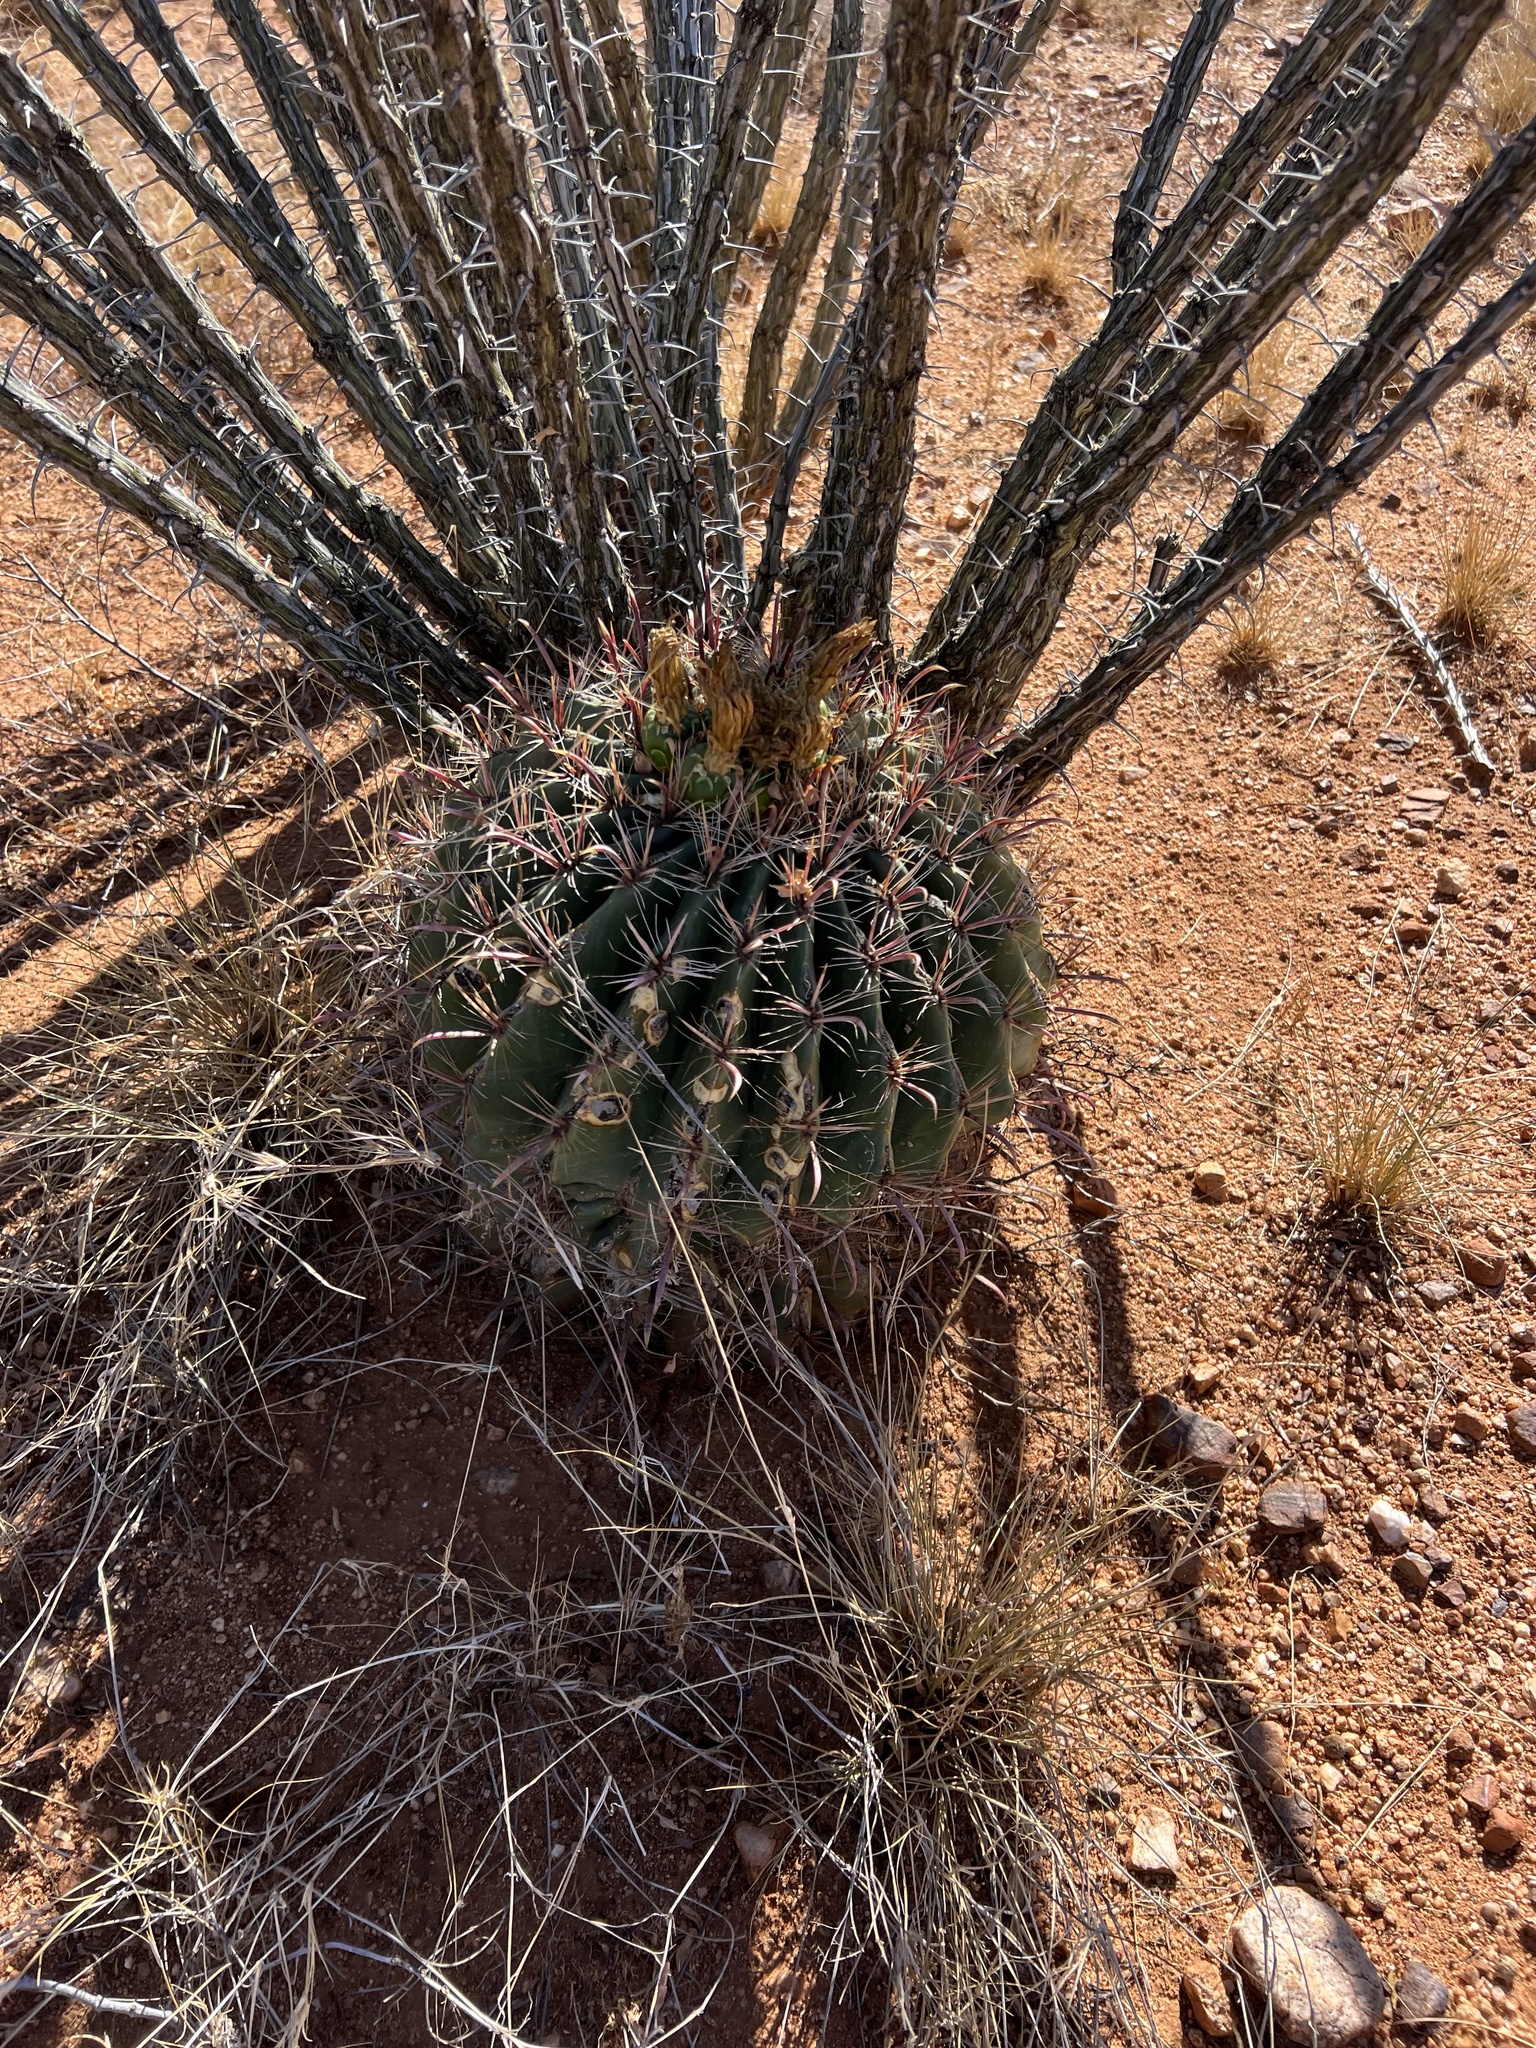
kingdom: Plantae
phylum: Tracheophyta
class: Magnoliopsida
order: Caryophyllales
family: Cactaceae
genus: Ferocactus
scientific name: Ferocactus wislizeni
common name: Candy barrel cactus
